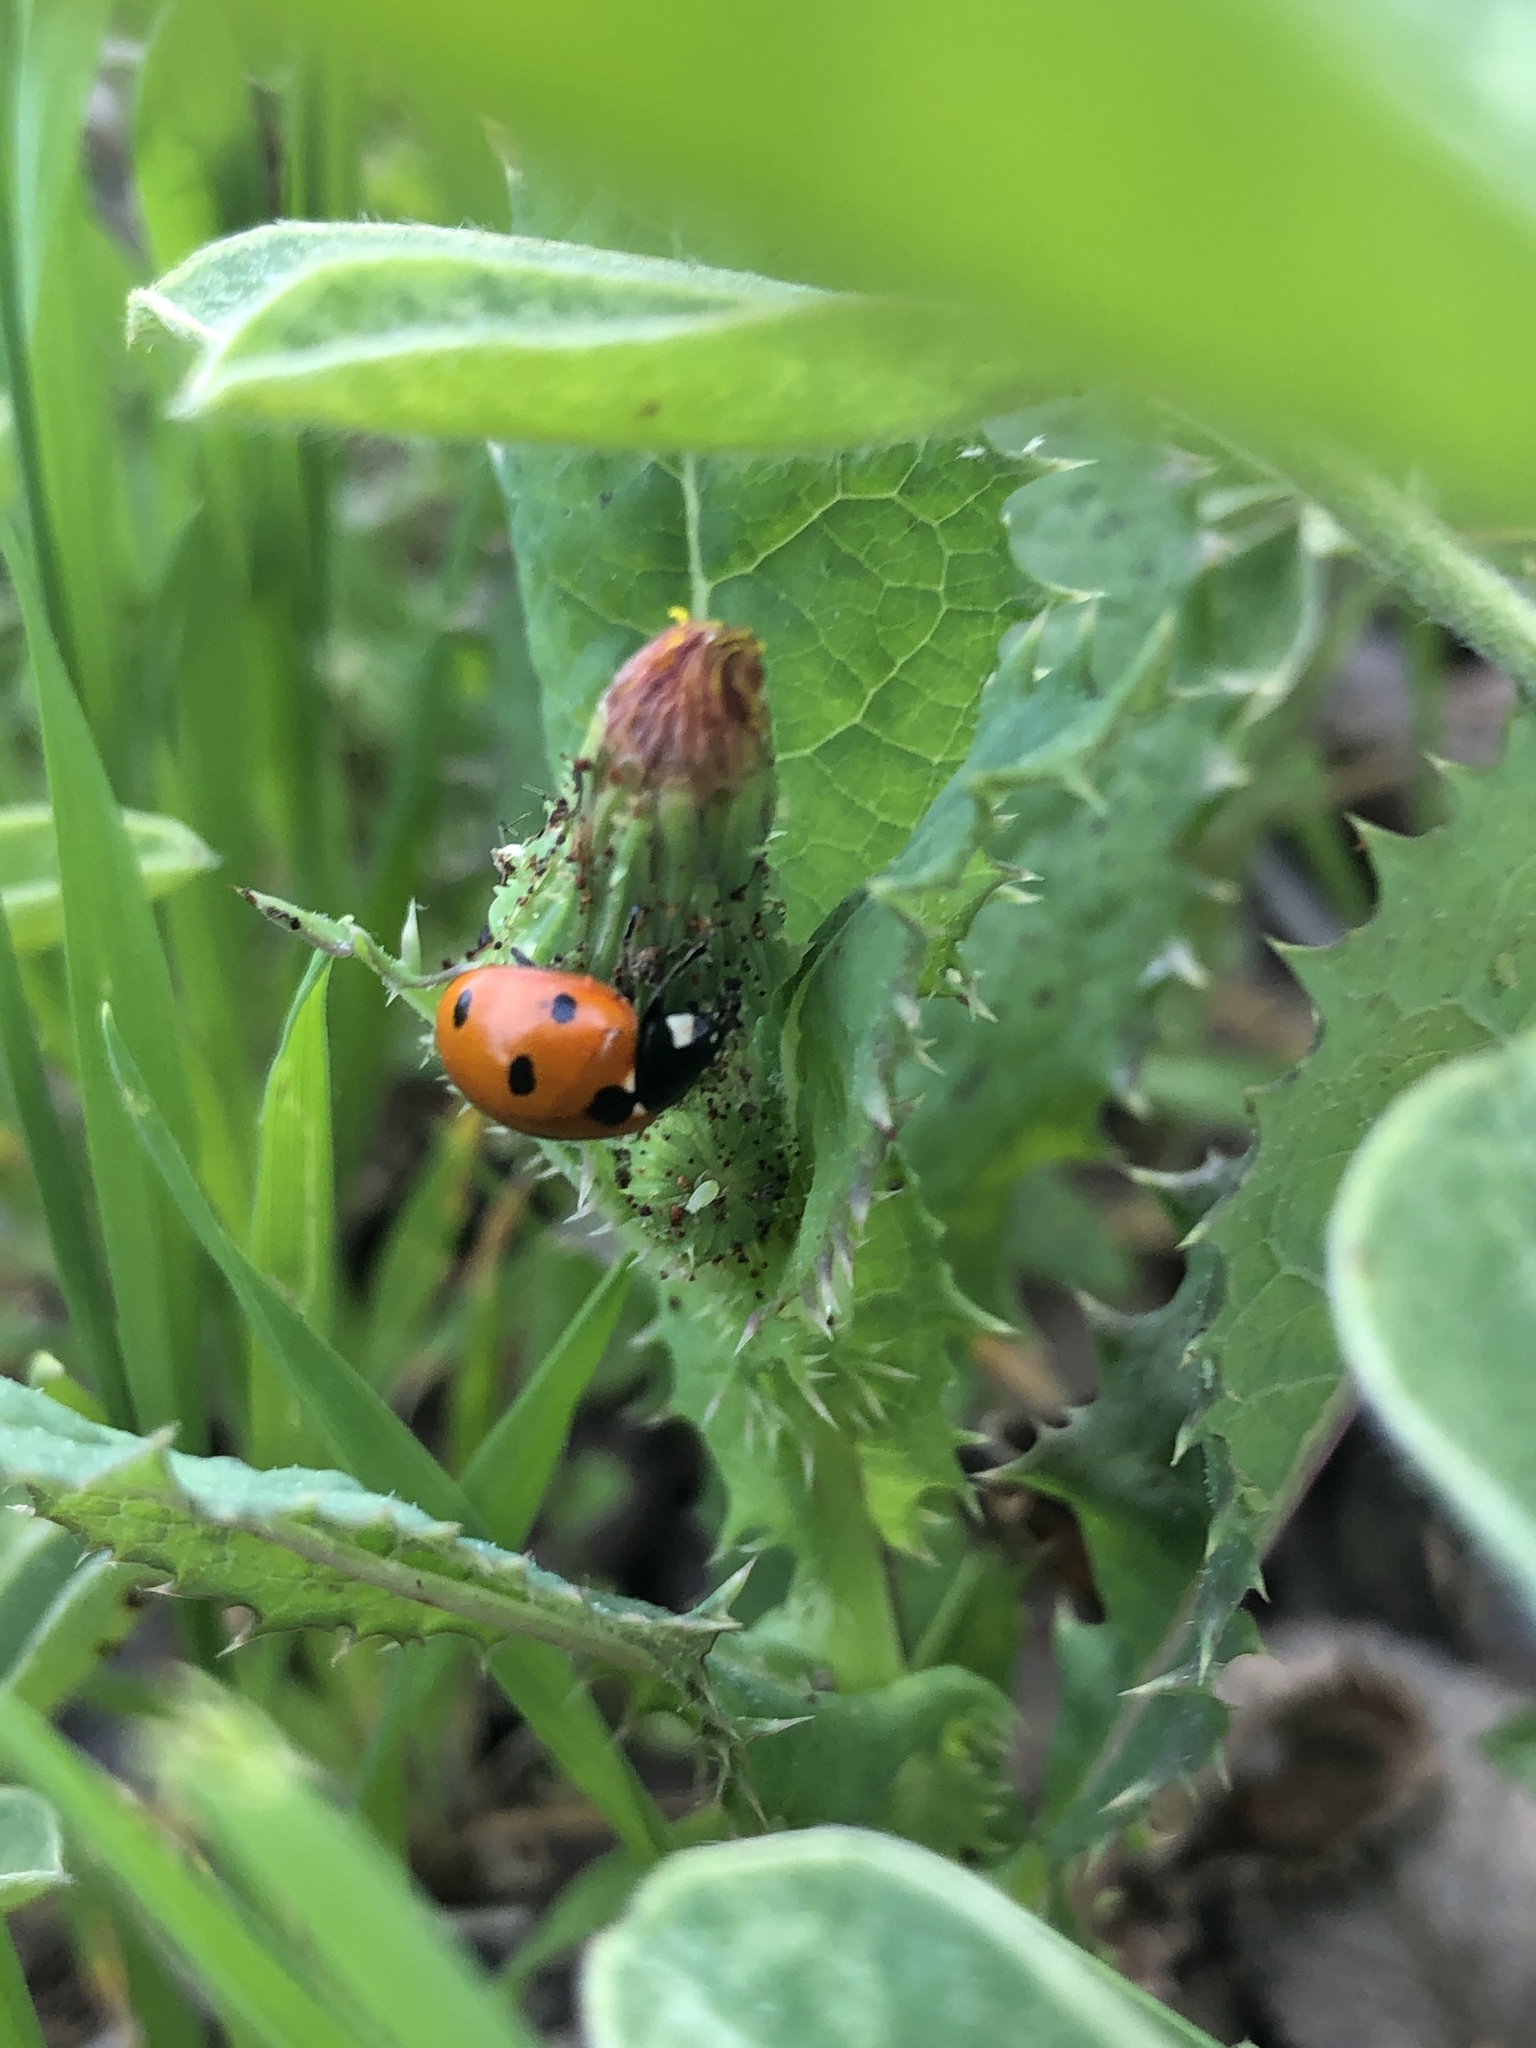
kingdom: Animalia
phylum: Arthropoda
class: Insecta
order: Coleoptera
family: Coccinellidae
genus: Coccinella
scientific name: Coccinella septempunctata
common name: Sevenspotted lady beetle
